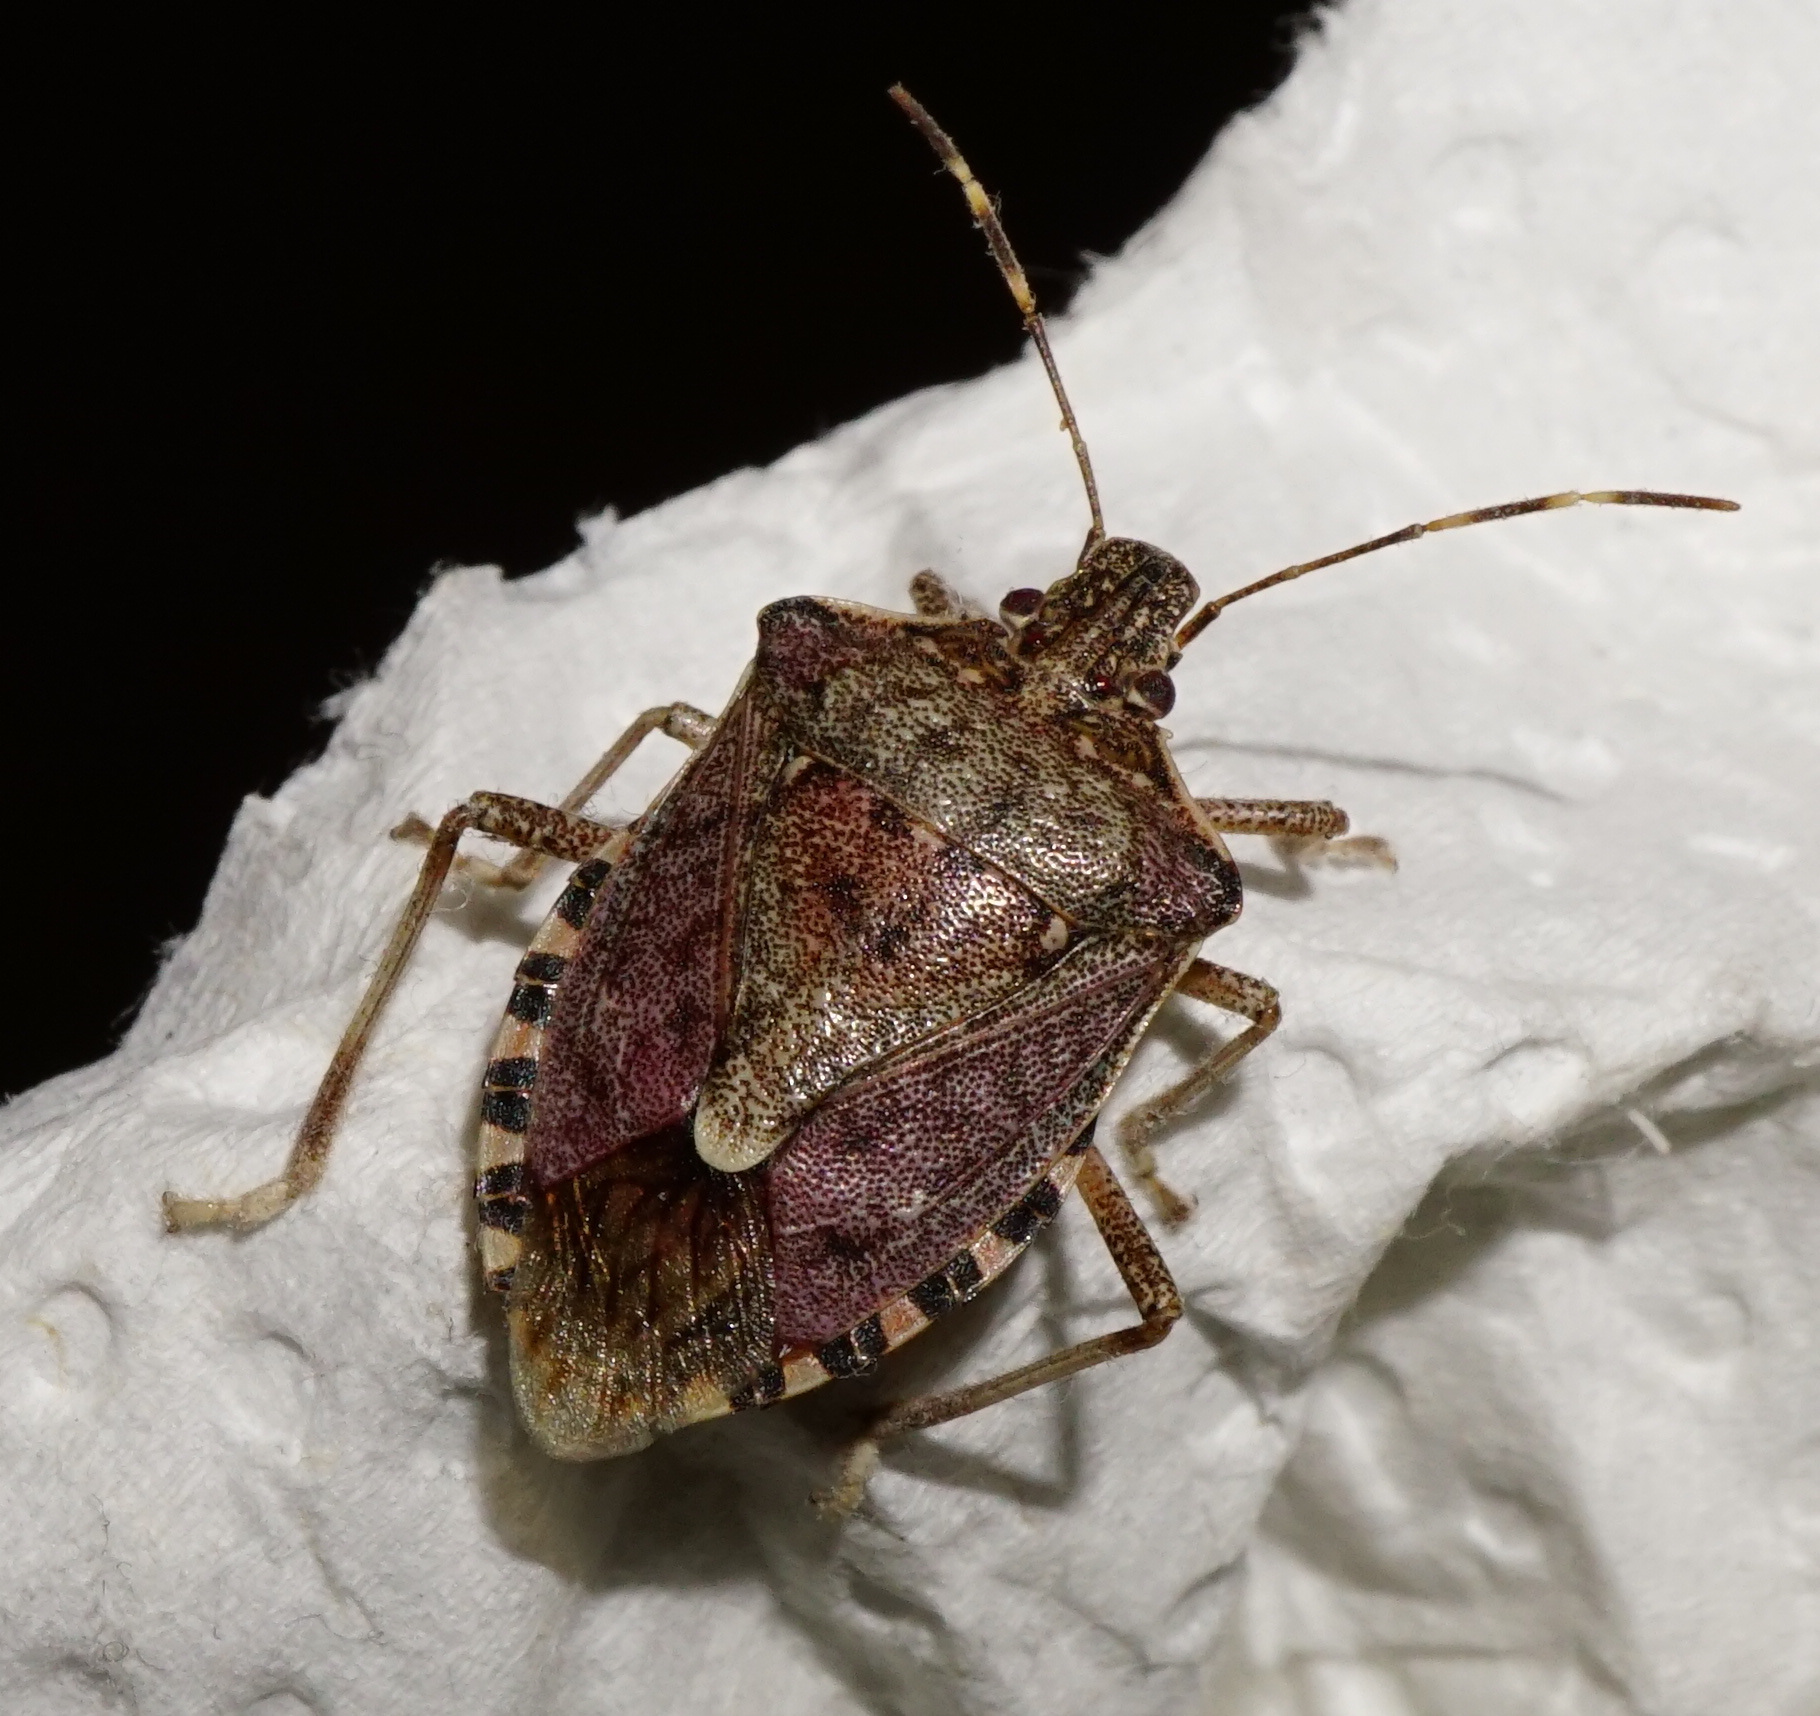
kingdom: Animalia
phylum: Arthropoda
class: Insecta
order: Hemiptera
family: Pentatomidae
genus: Halyomorpha
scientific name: Halyomorpha halys
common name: Brown marmorated stink bug
